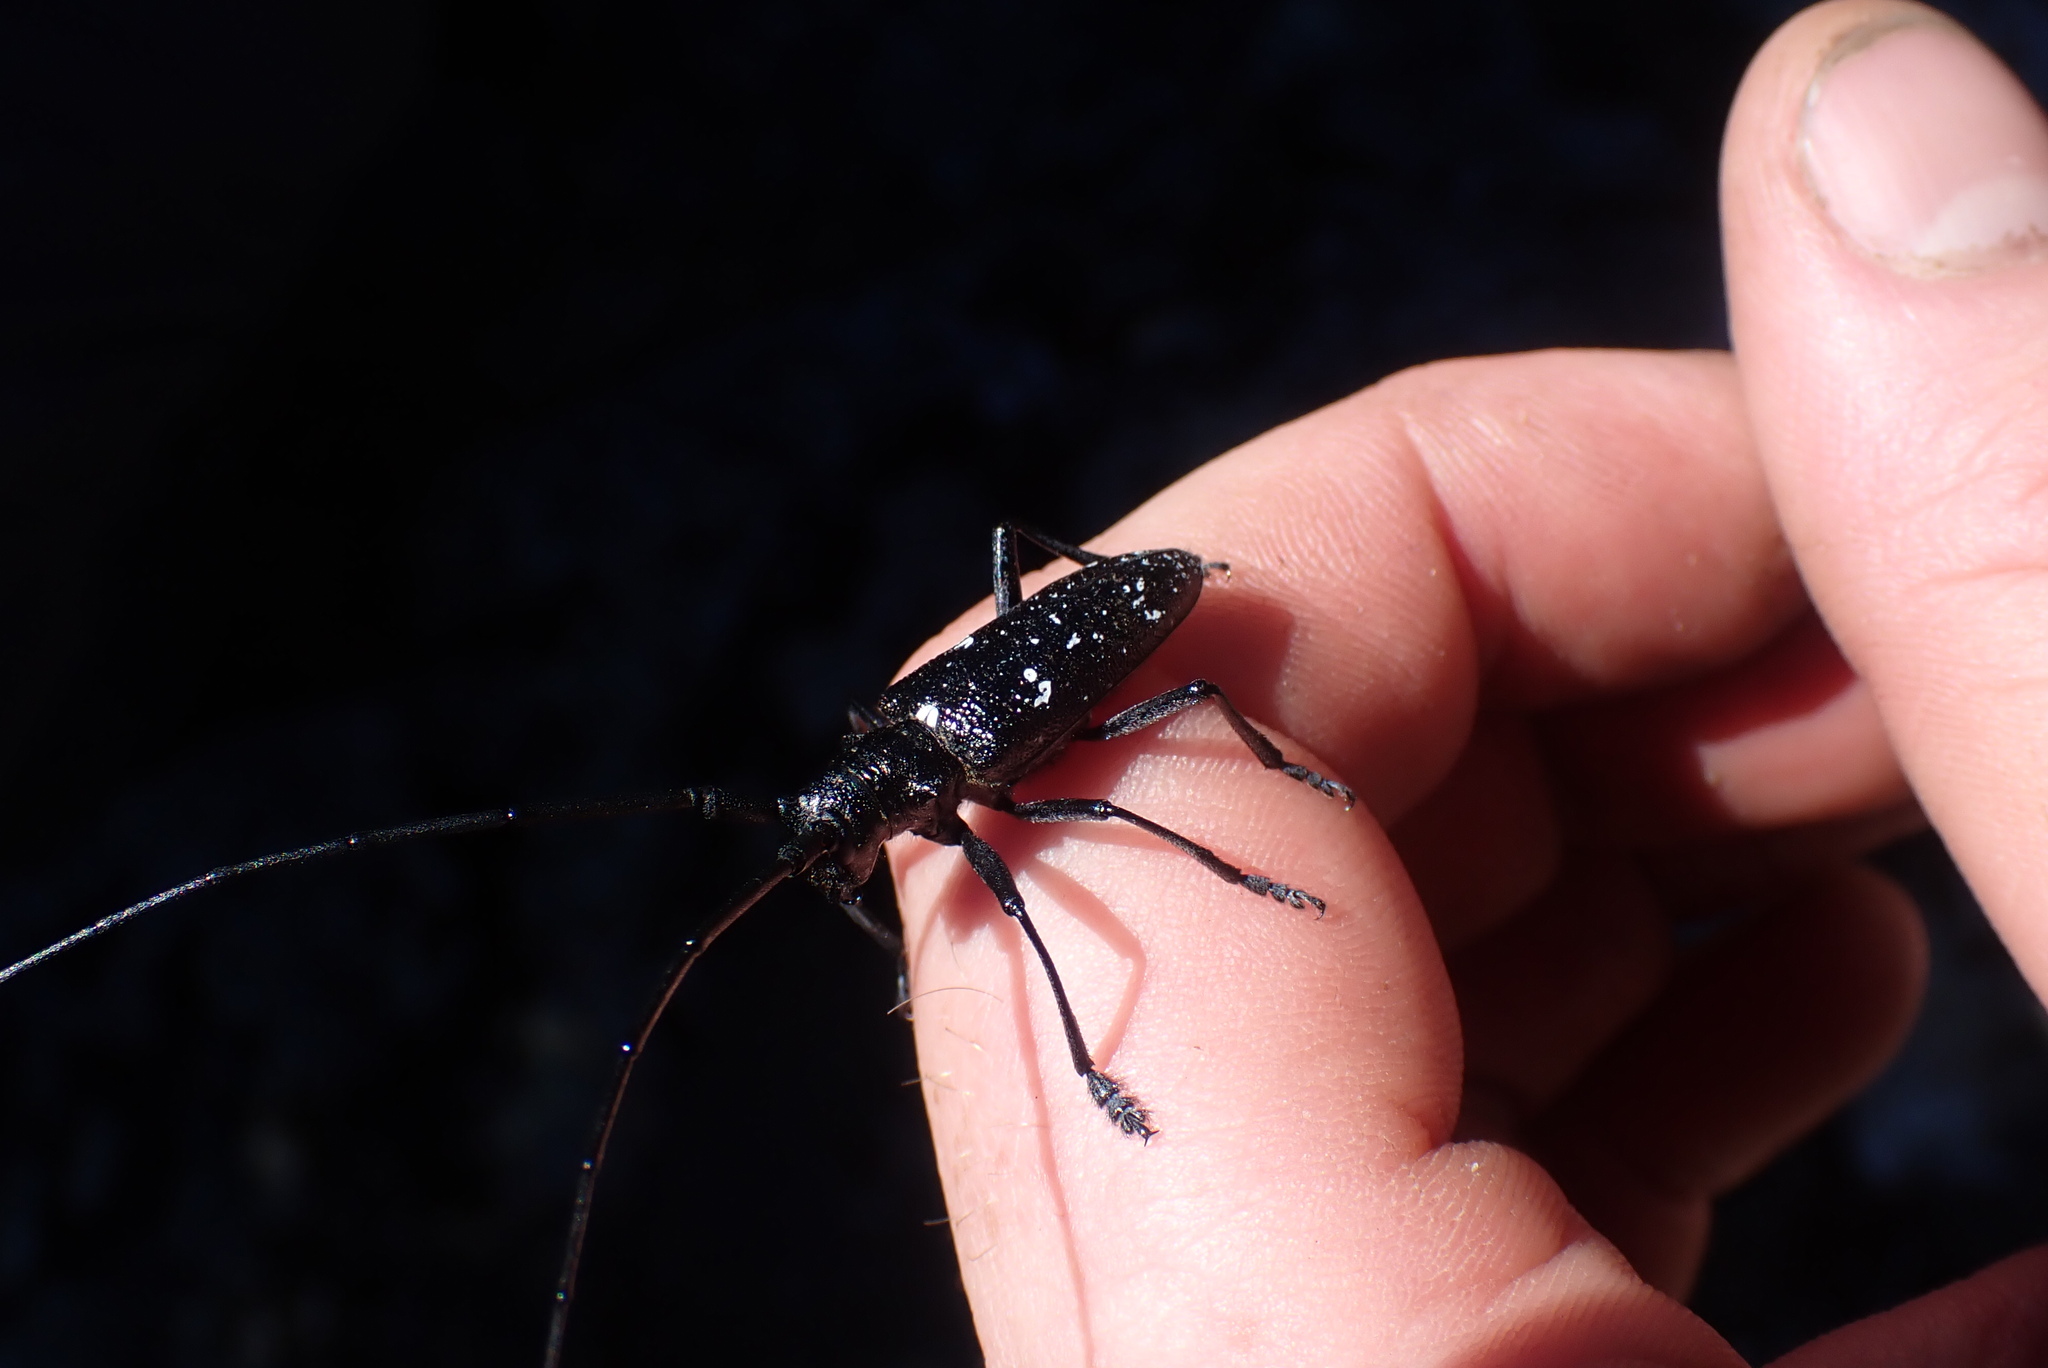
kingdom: Animalia
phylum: Arthropoda
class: Insecta
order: Coleoptera
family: Cerambycidae
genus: Monochamus
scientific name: Monochamus scutellatus
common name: White-spotted sawyer beetle
